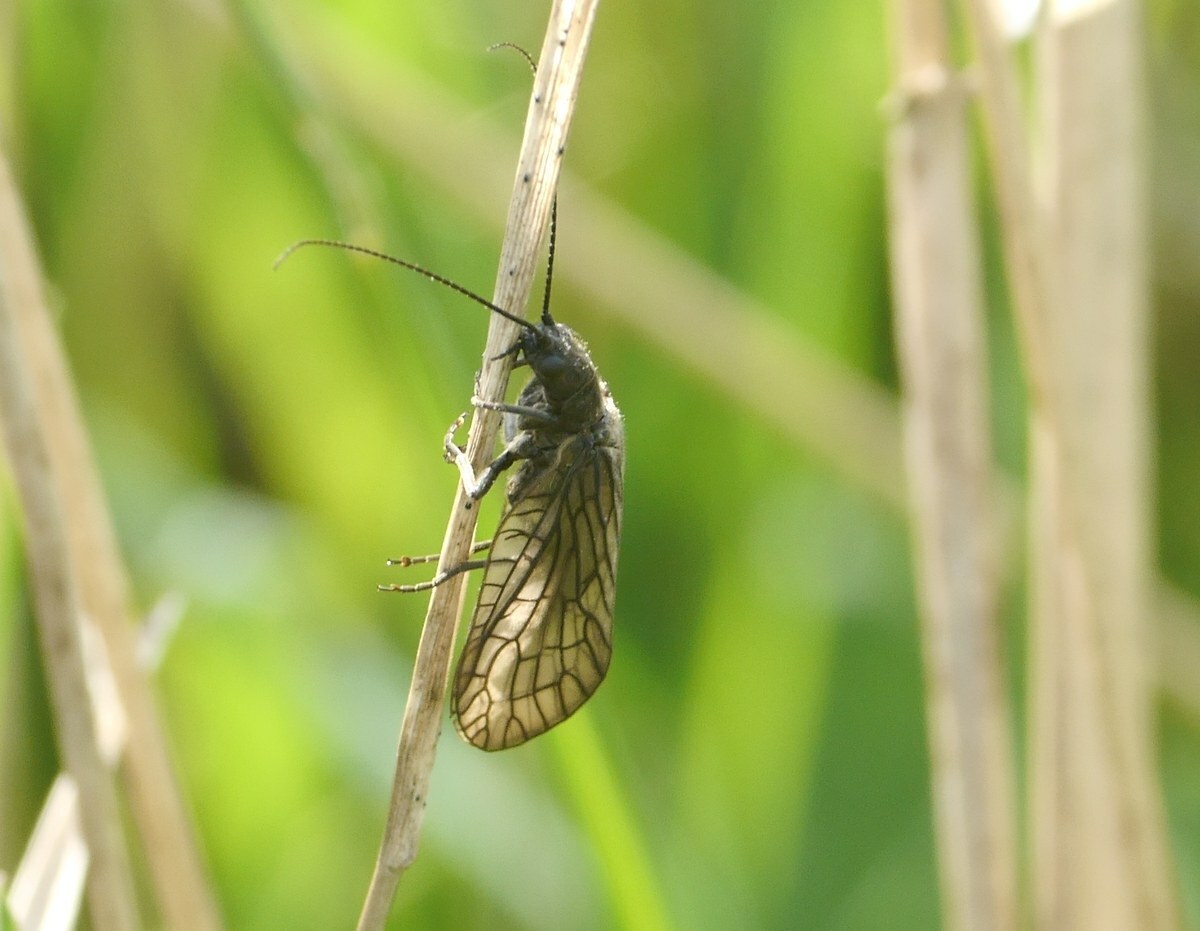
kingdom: Animalia
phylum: Arthropoda
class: Insecta
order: Megaloptera
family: Sialidae
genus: Sialis
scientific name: Sialis
